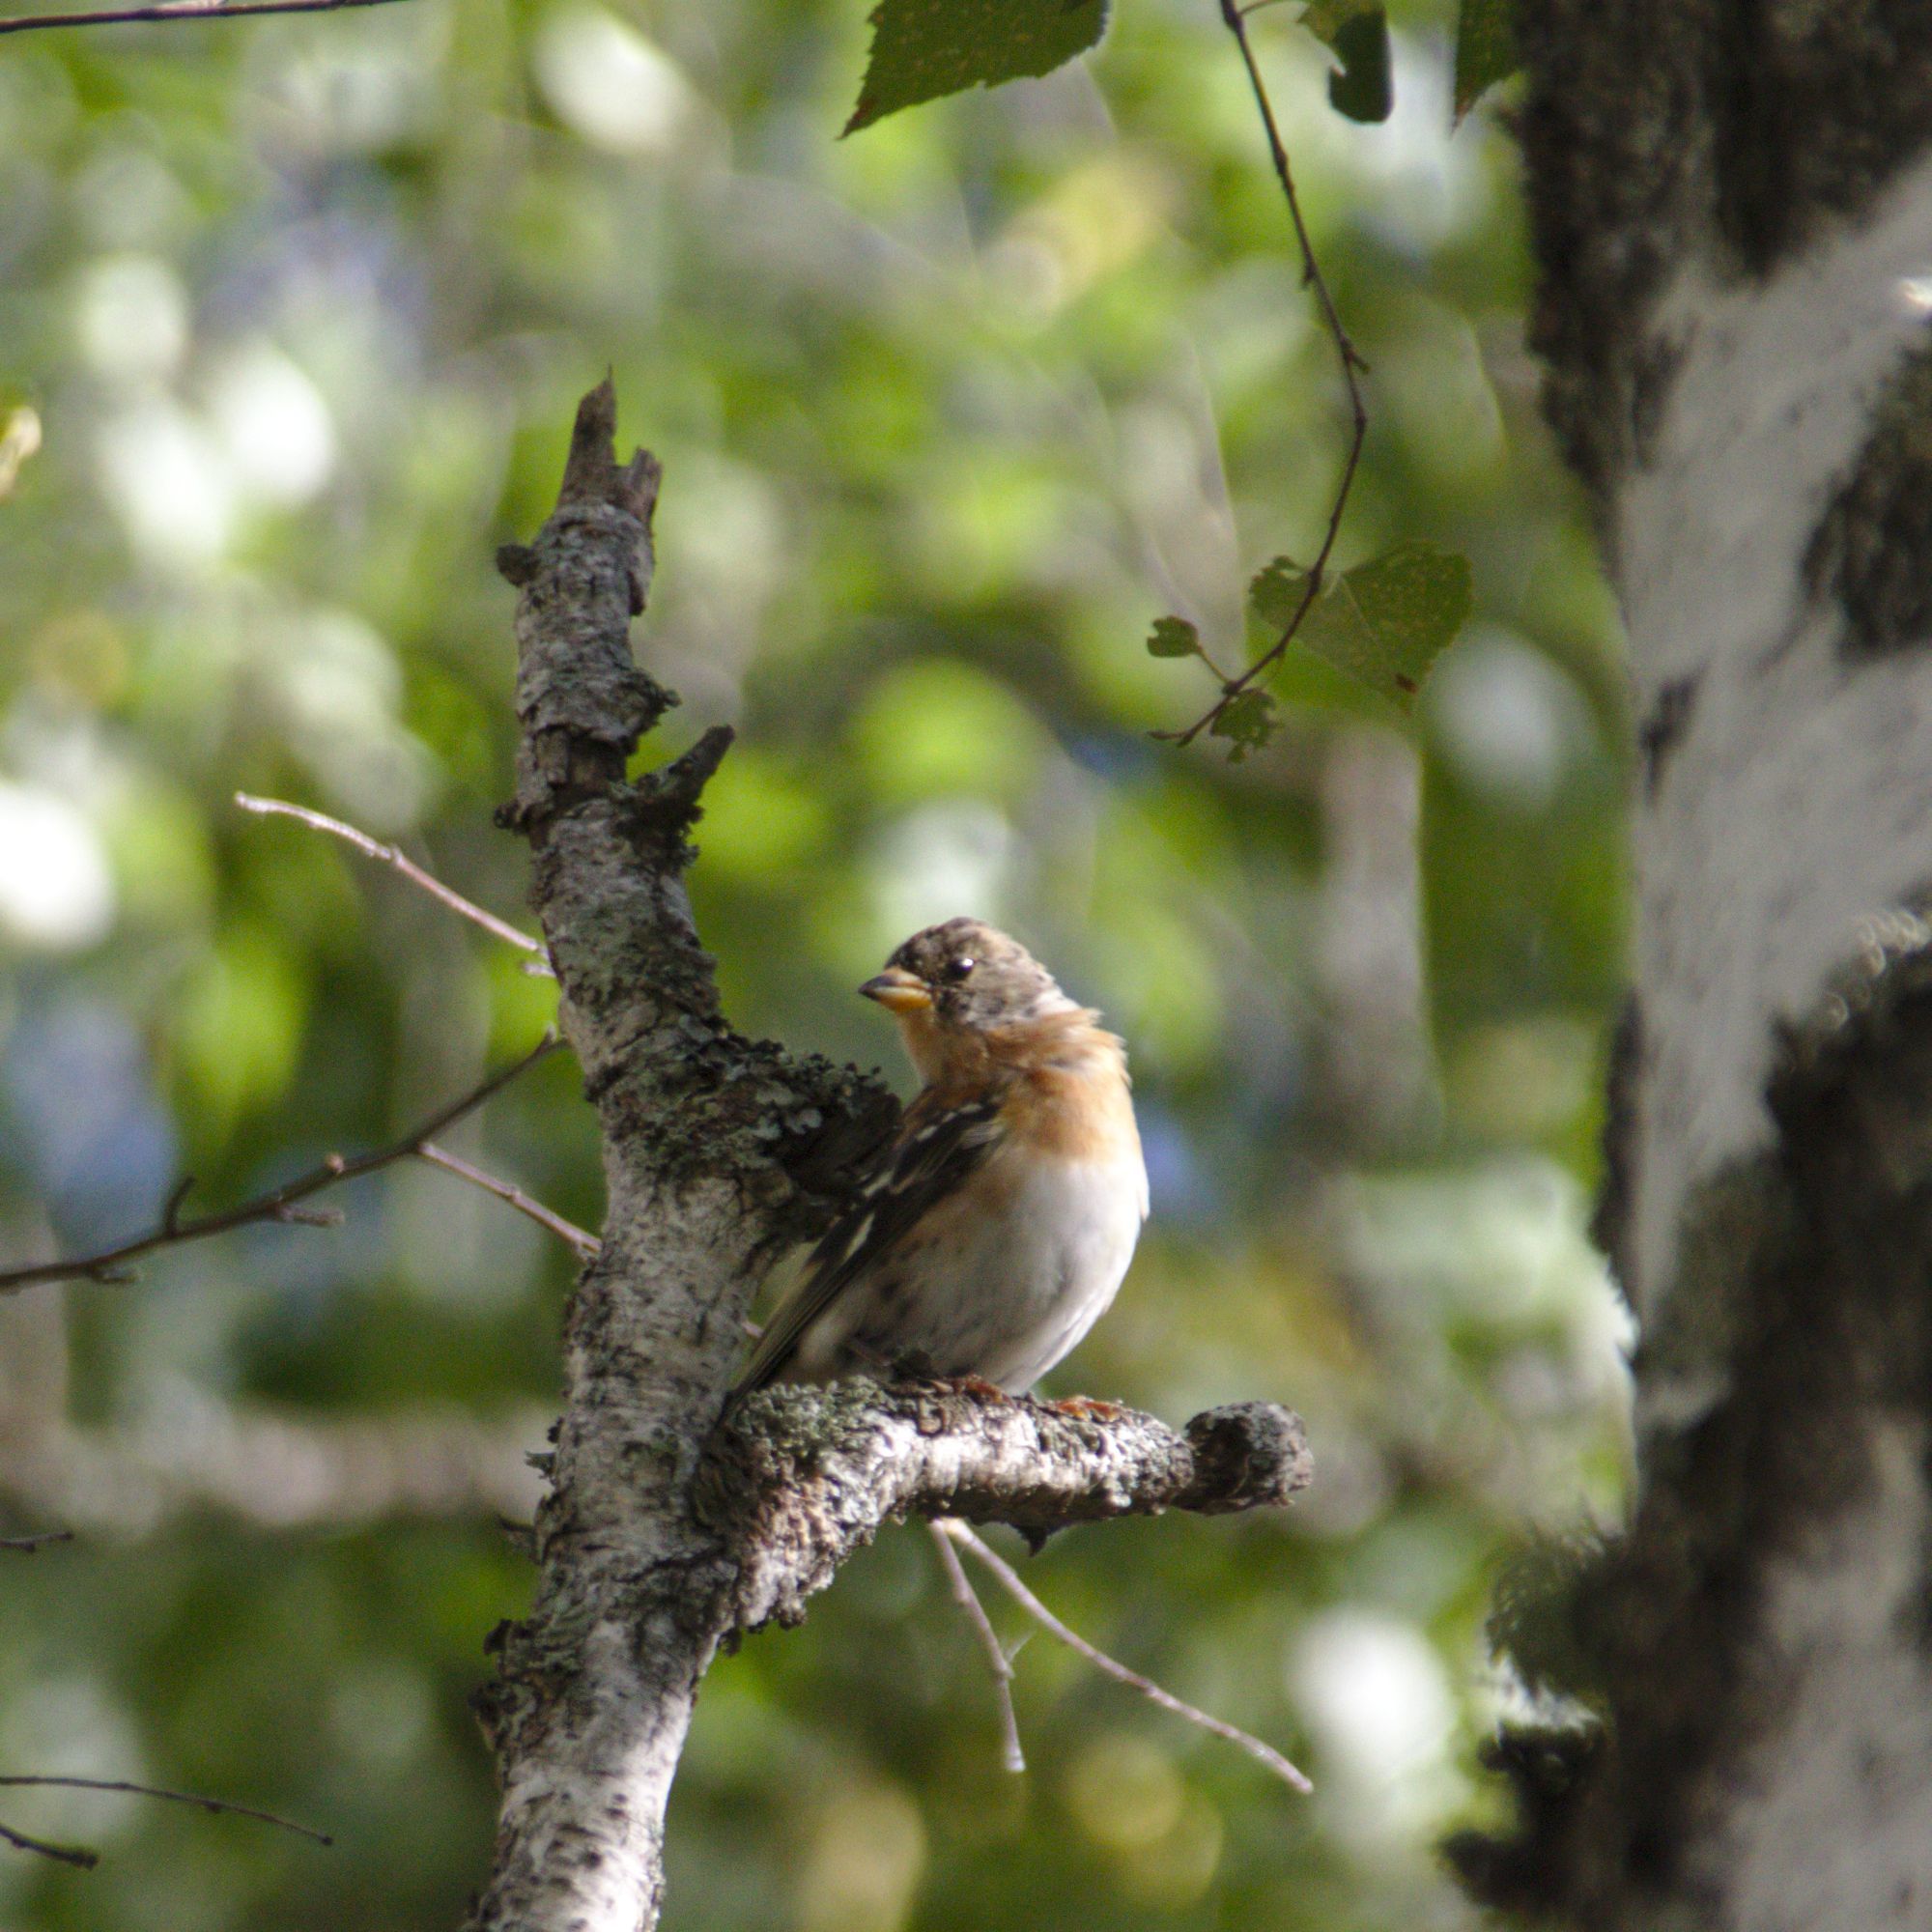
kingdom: Animalia
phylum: Chordata
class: Aves
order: Passeriformes
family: Fringillidae
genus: Fringilla
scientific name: Fringilla montifringilla
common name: Brambling
